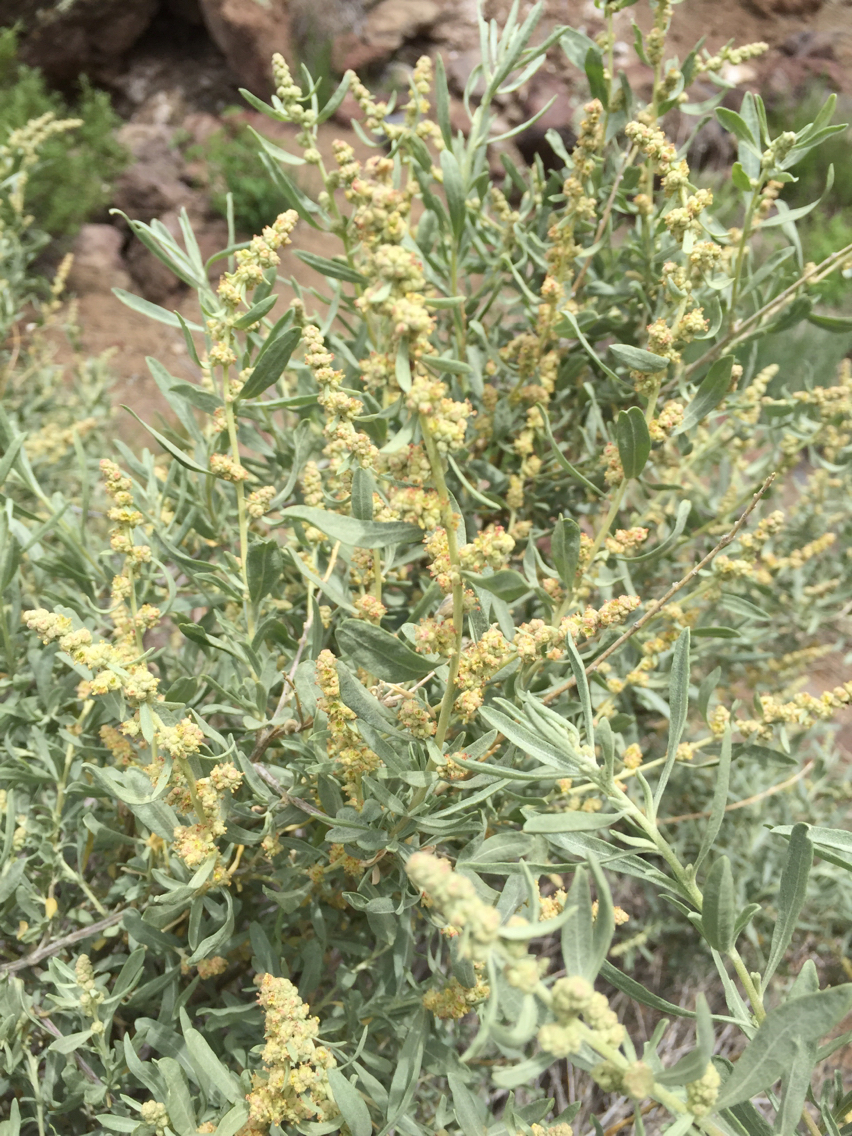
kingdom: Plantae
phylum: Tracheophyta
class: Magnoliopsida
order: Caryophyllales
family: Amaranthaceae
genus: Atriplex
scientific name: Atriplex canescens
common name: Four-wing saltbush
